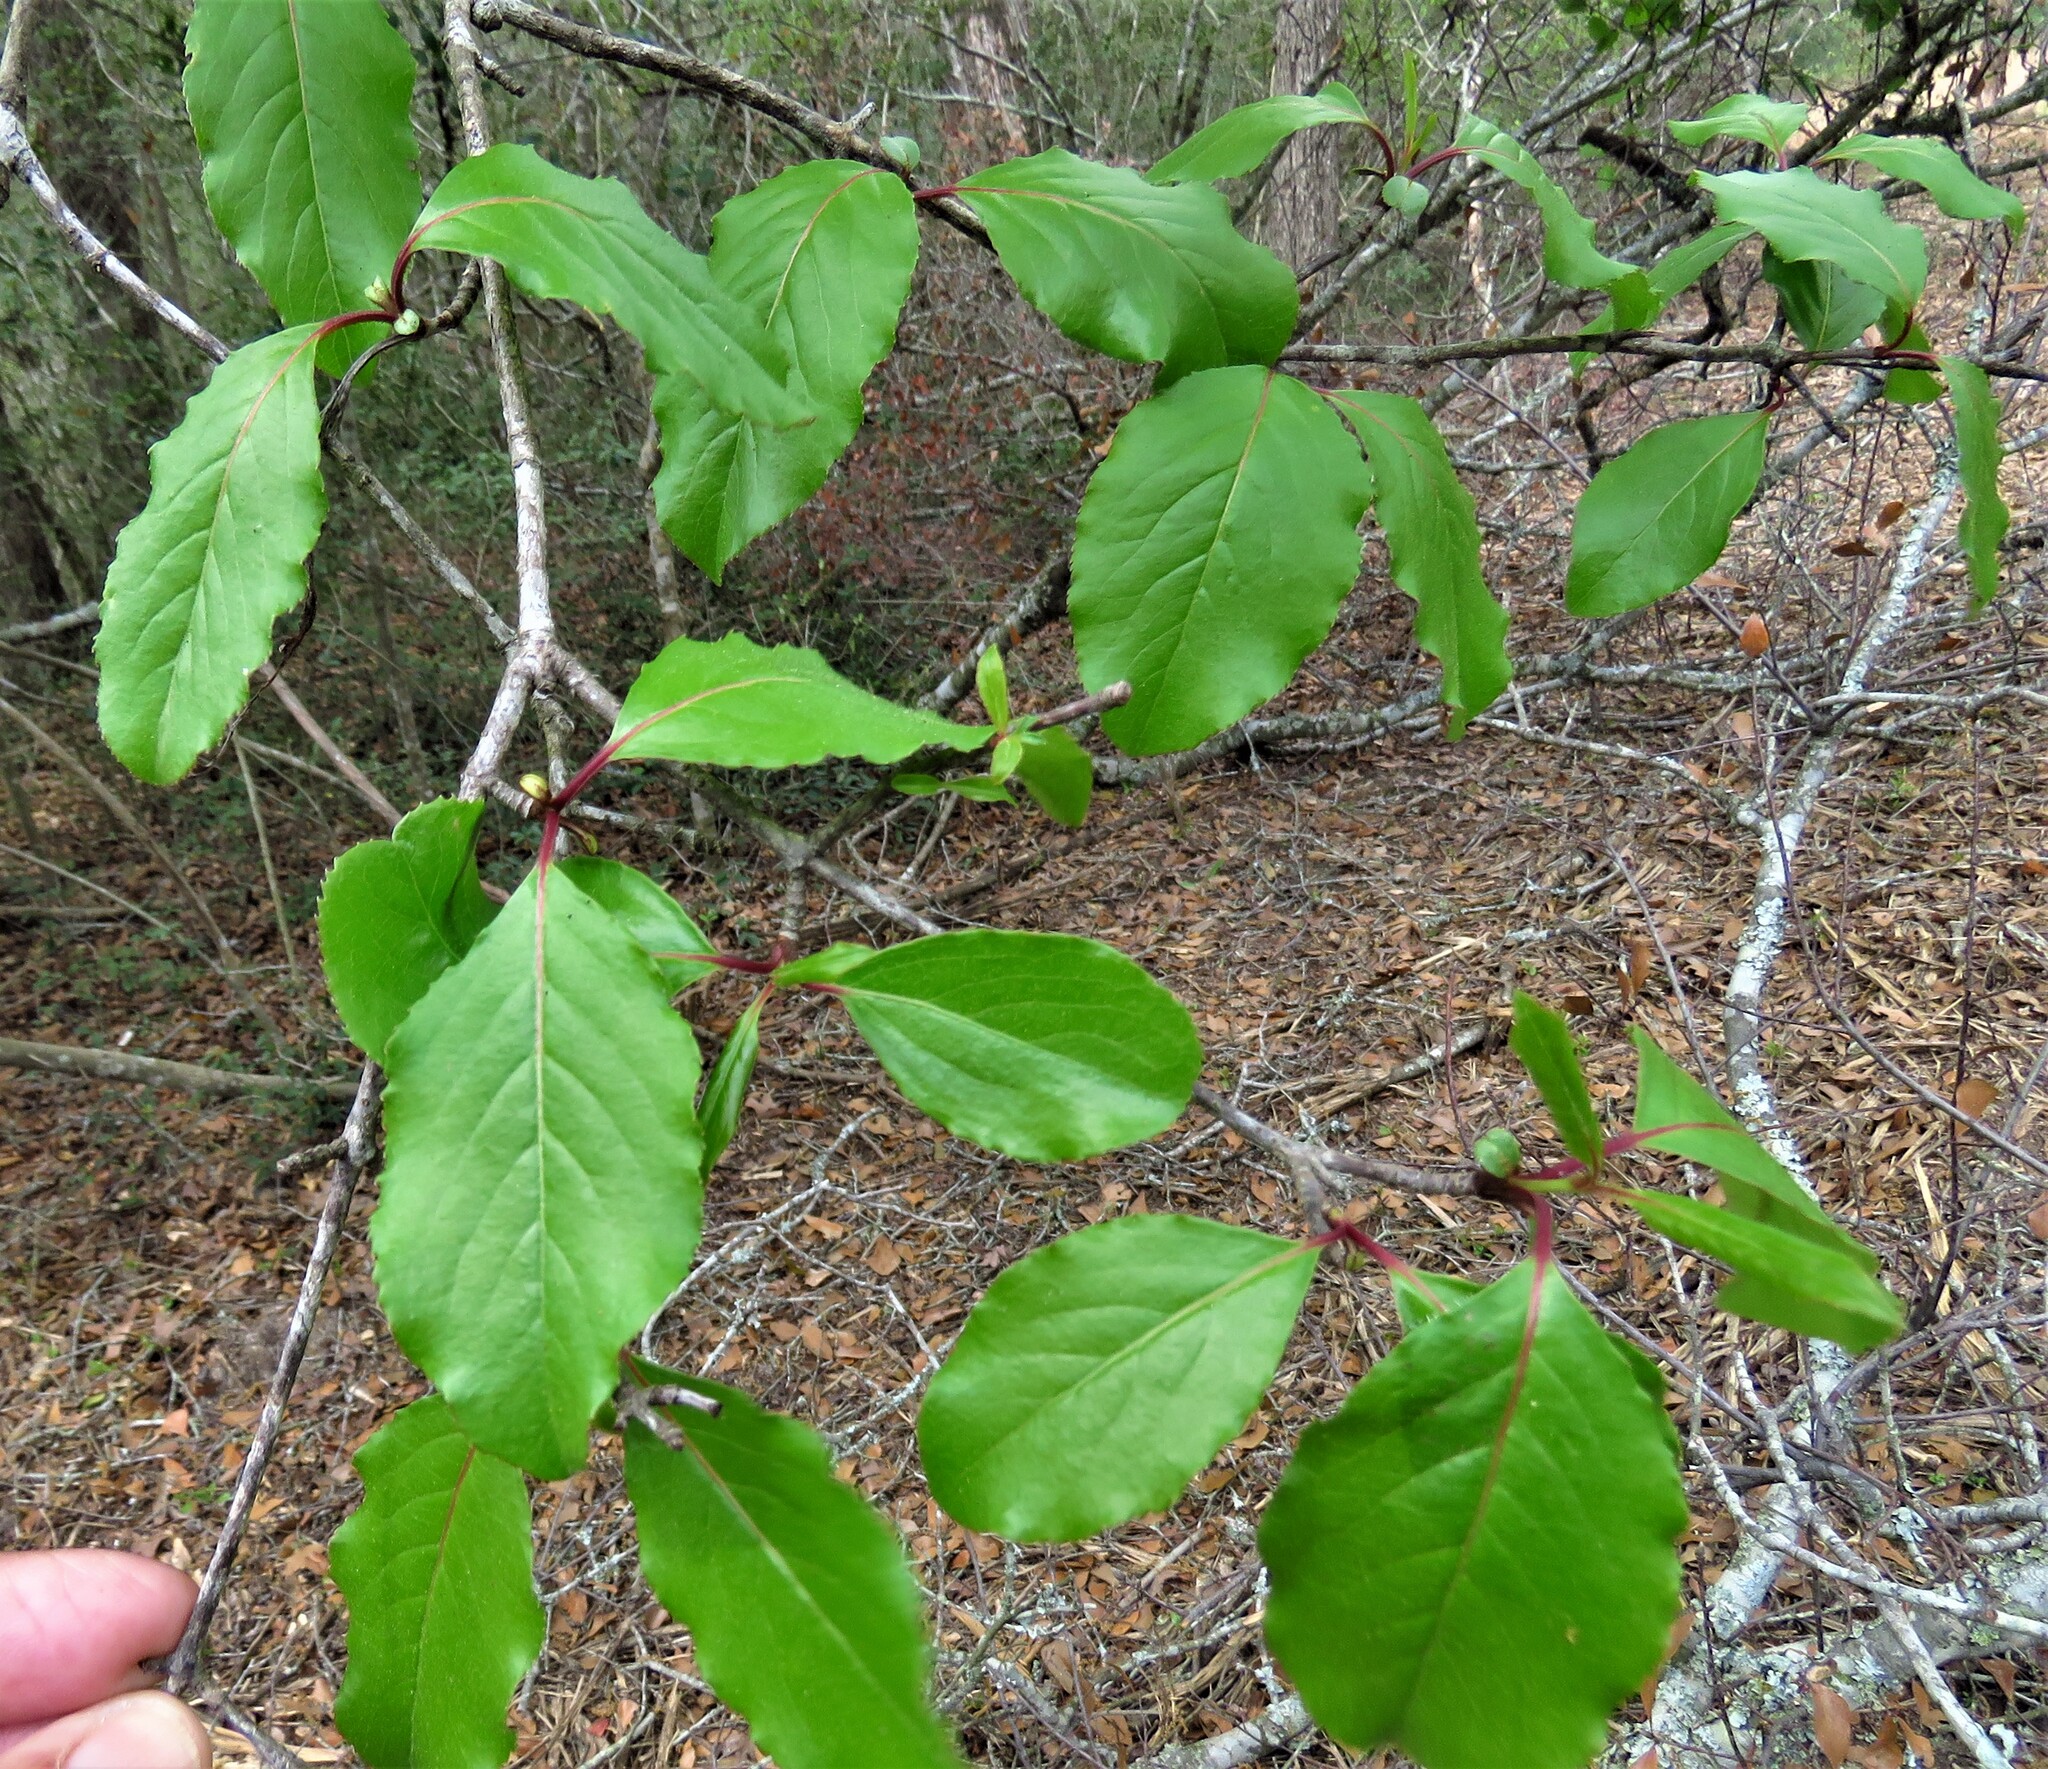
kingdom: Plantae
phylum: Tracheophyta
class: Magnoliopsida
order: Dipsacales
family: Viburnaceae
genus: Viburnum
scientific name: Viburnum rufidulum
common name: Blue haw
